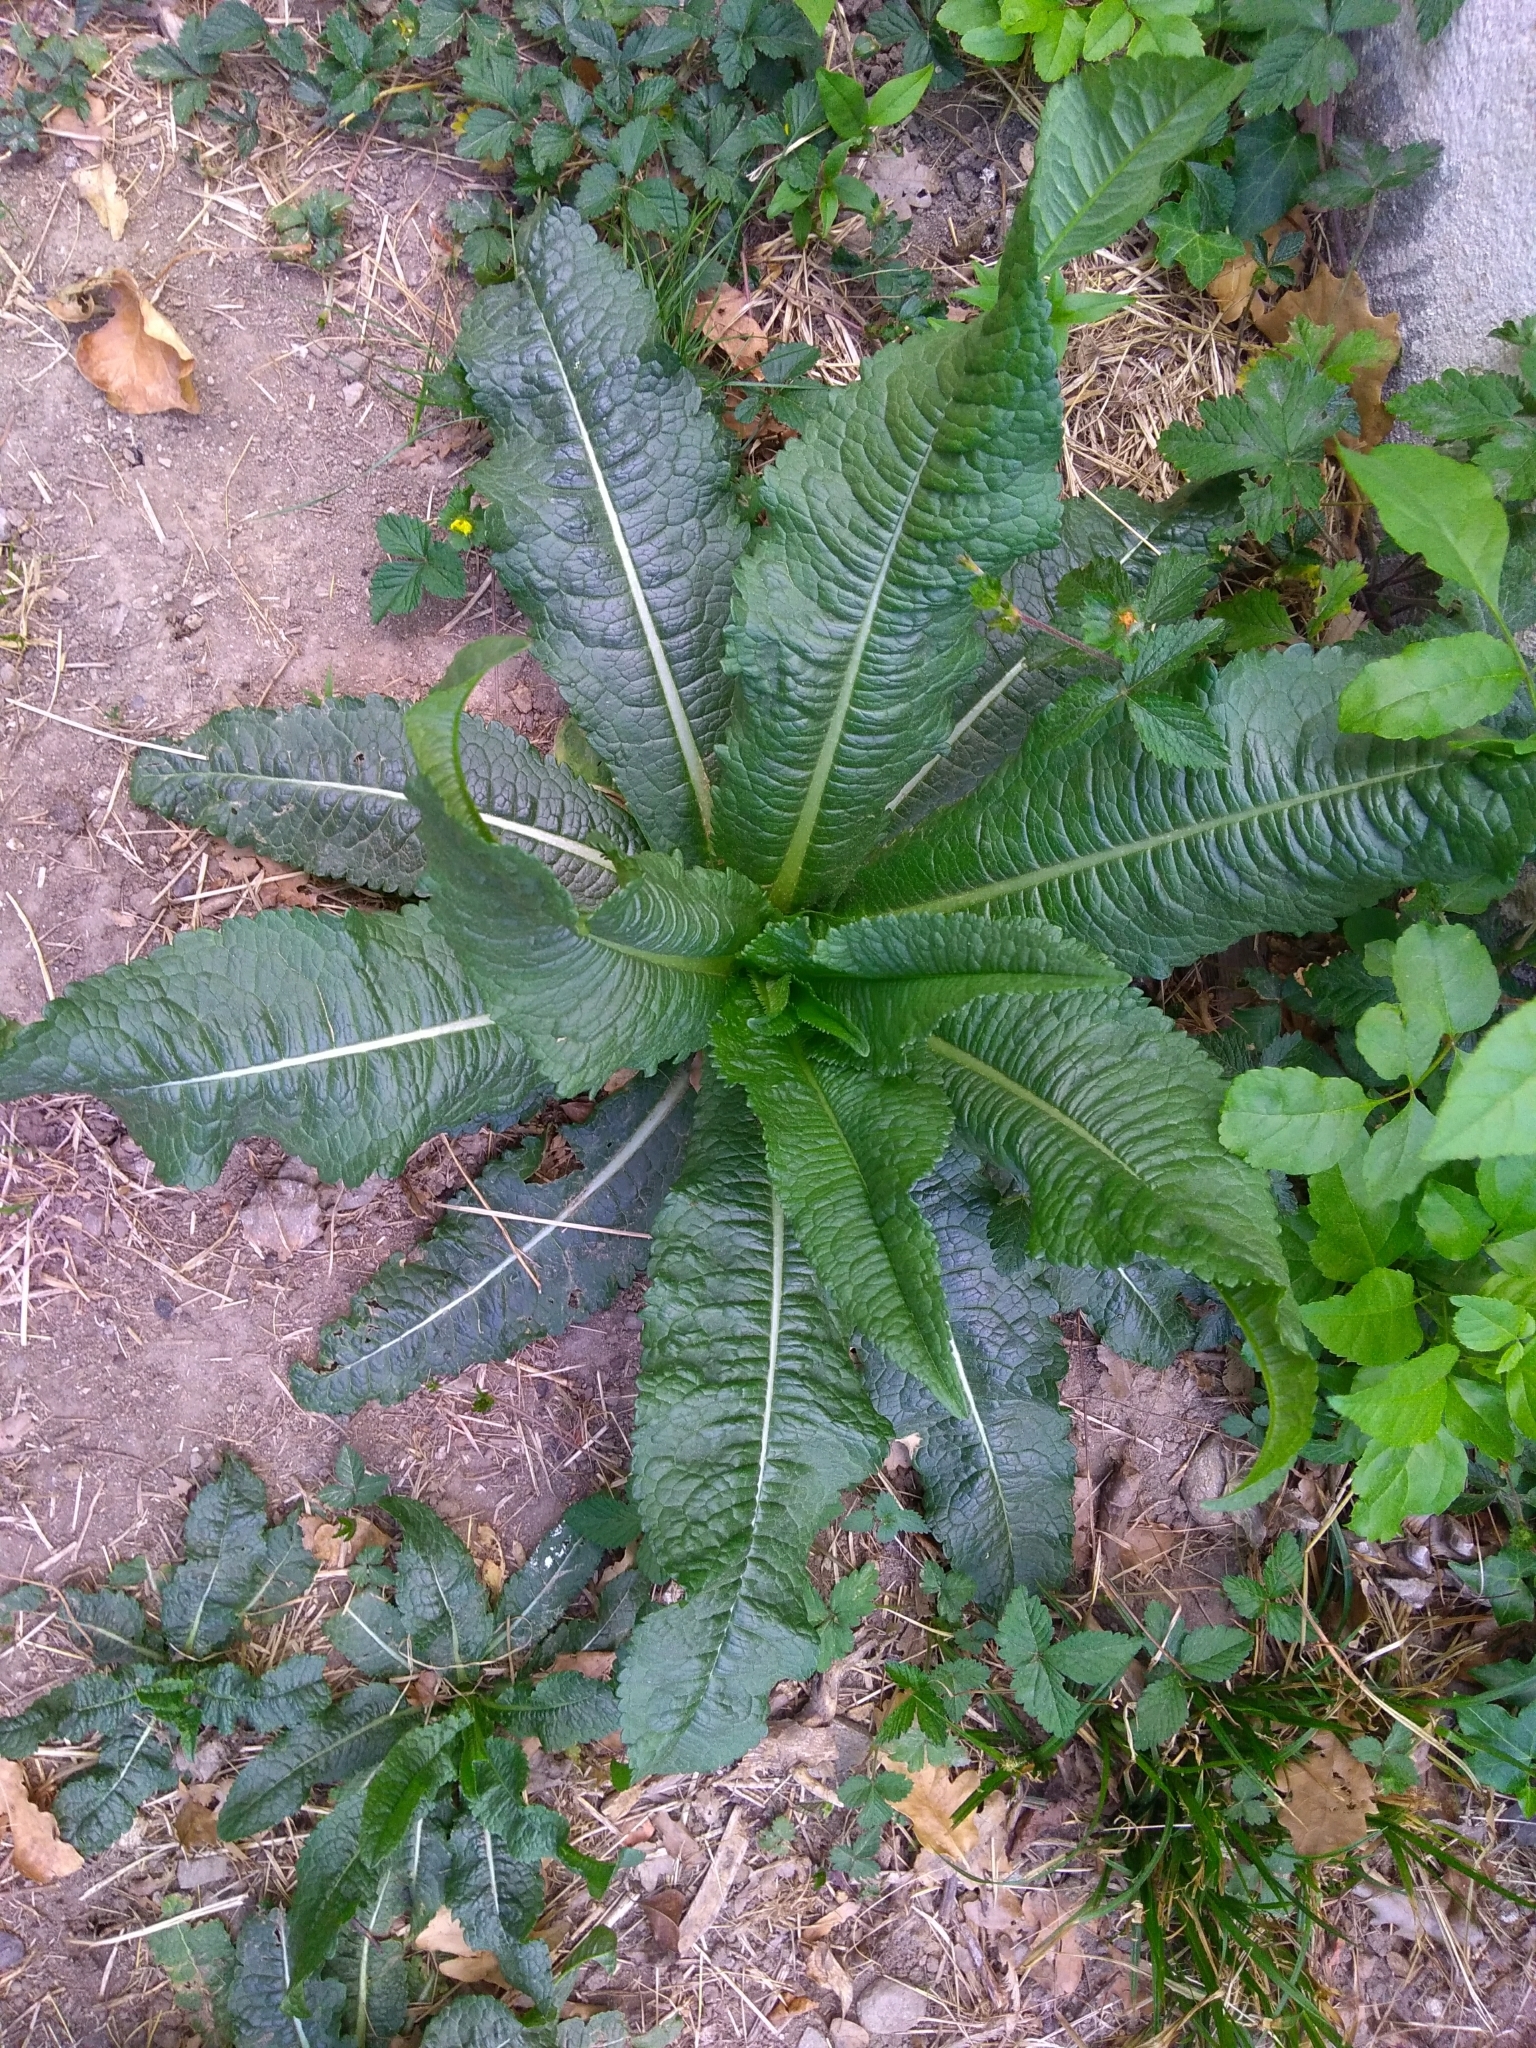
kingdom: Plantae
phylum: Tracheophyta
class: Magnoliopsida
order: Dipsacales
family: Caprifoliaceae
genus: Dipsacus
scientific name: Dipsacus fullonum
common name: Teasel
